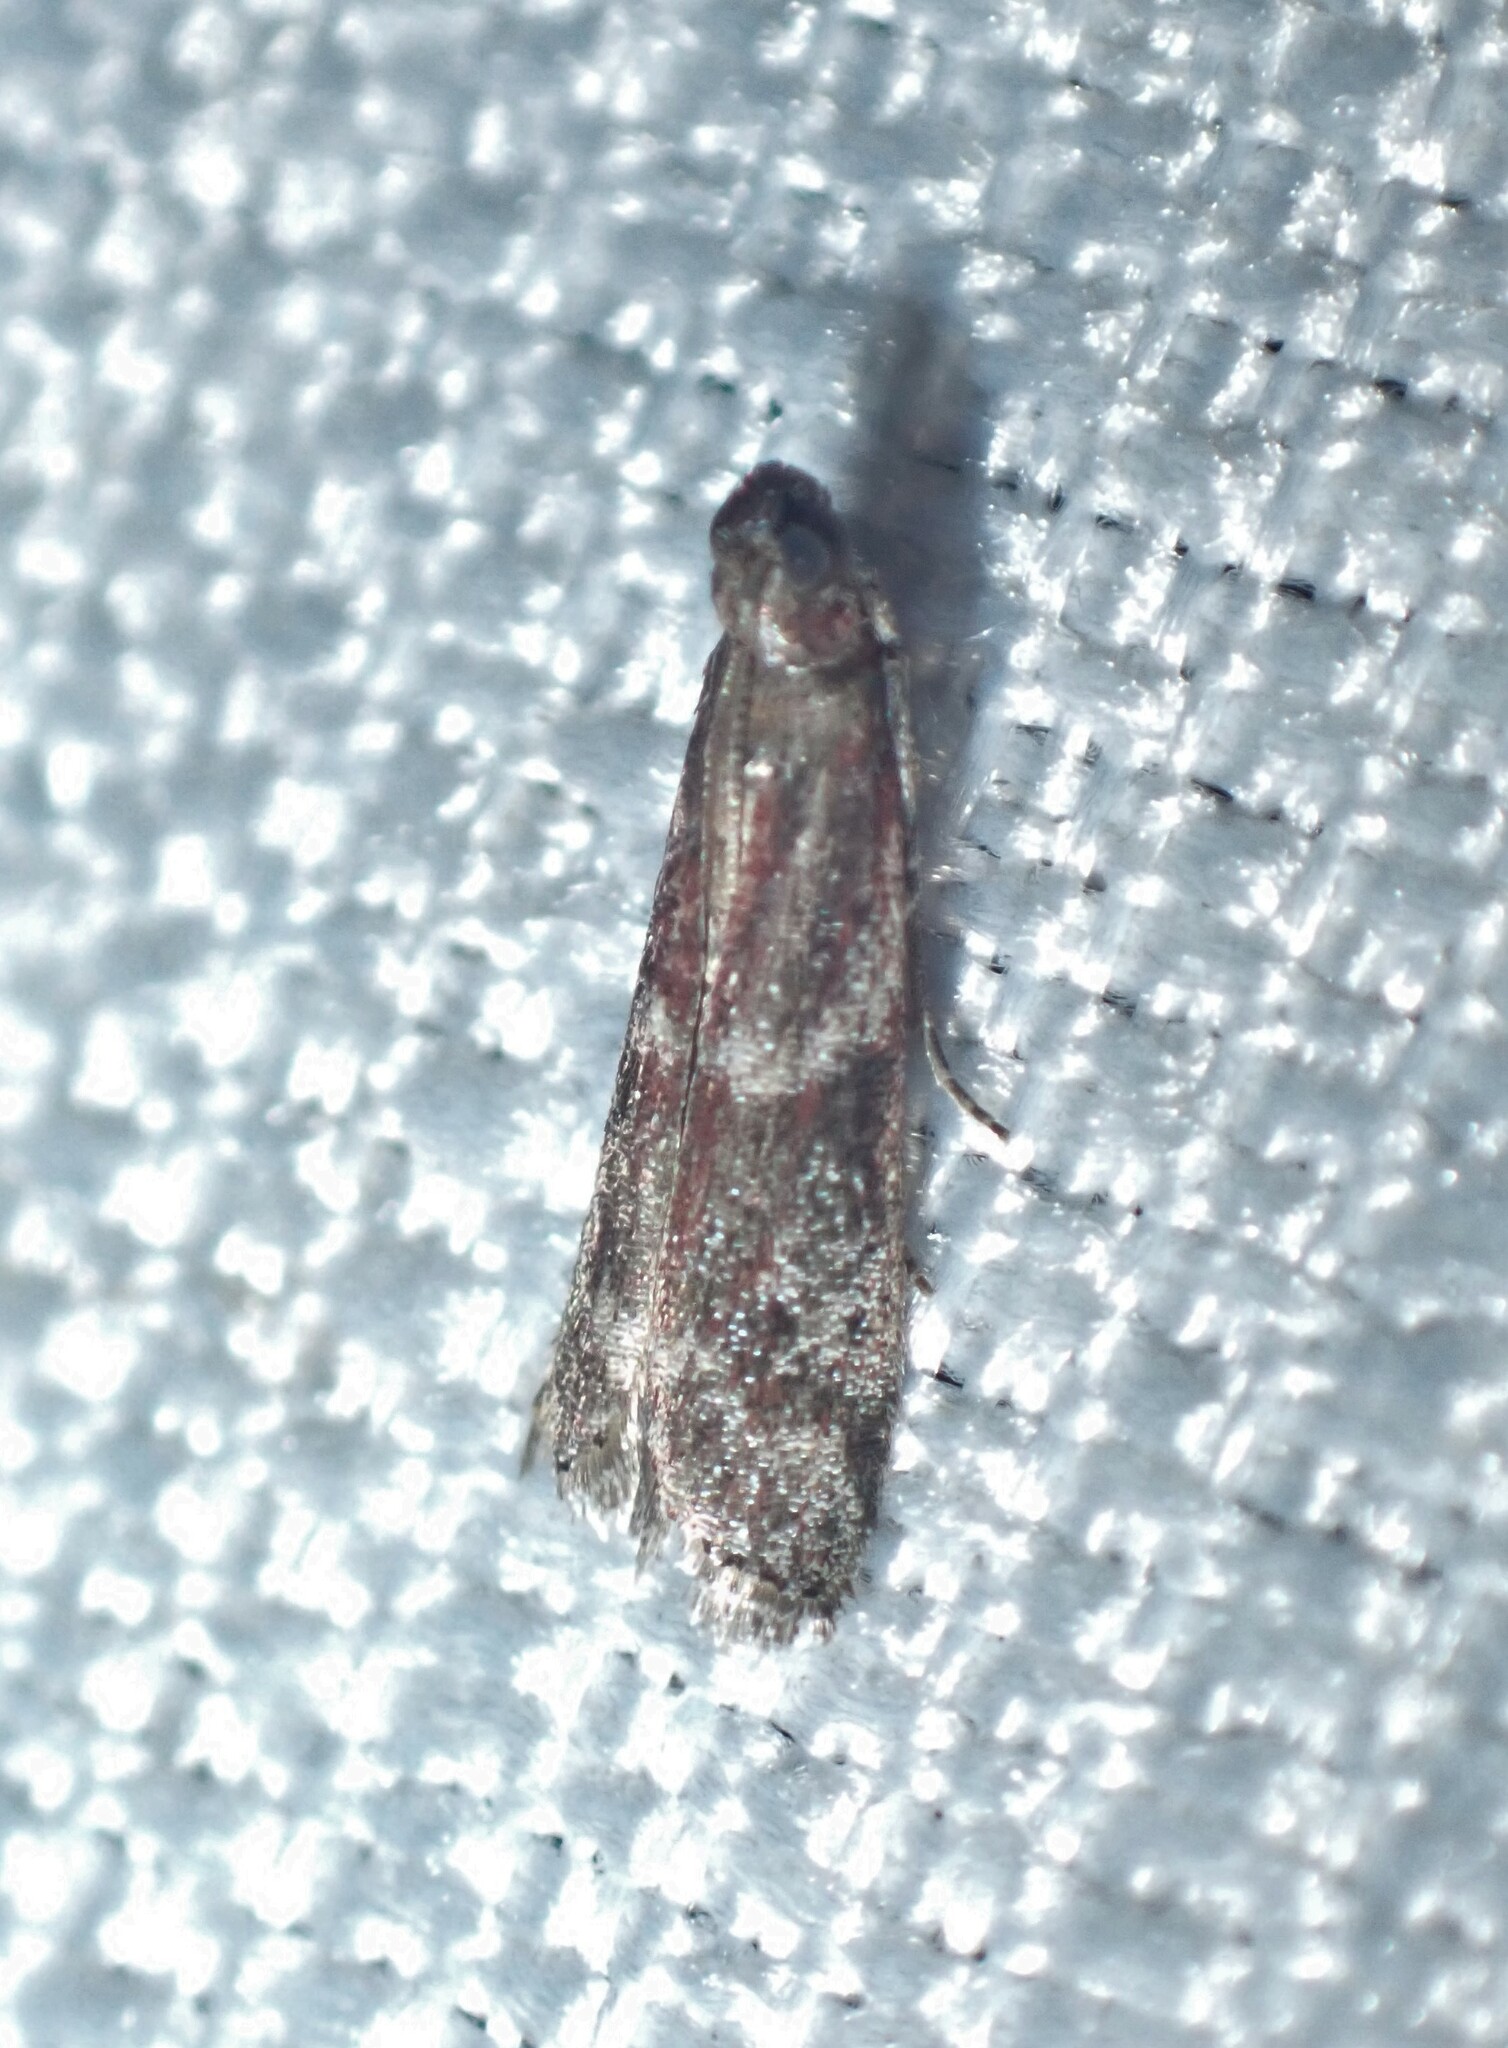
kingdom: Animalia
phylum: Arthropoda
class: Insecta
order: Lepidoptera
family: Pyralidae
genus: Cryptoblabes
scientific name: Cryptoblabes gnidiella
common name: Honeydew moth
